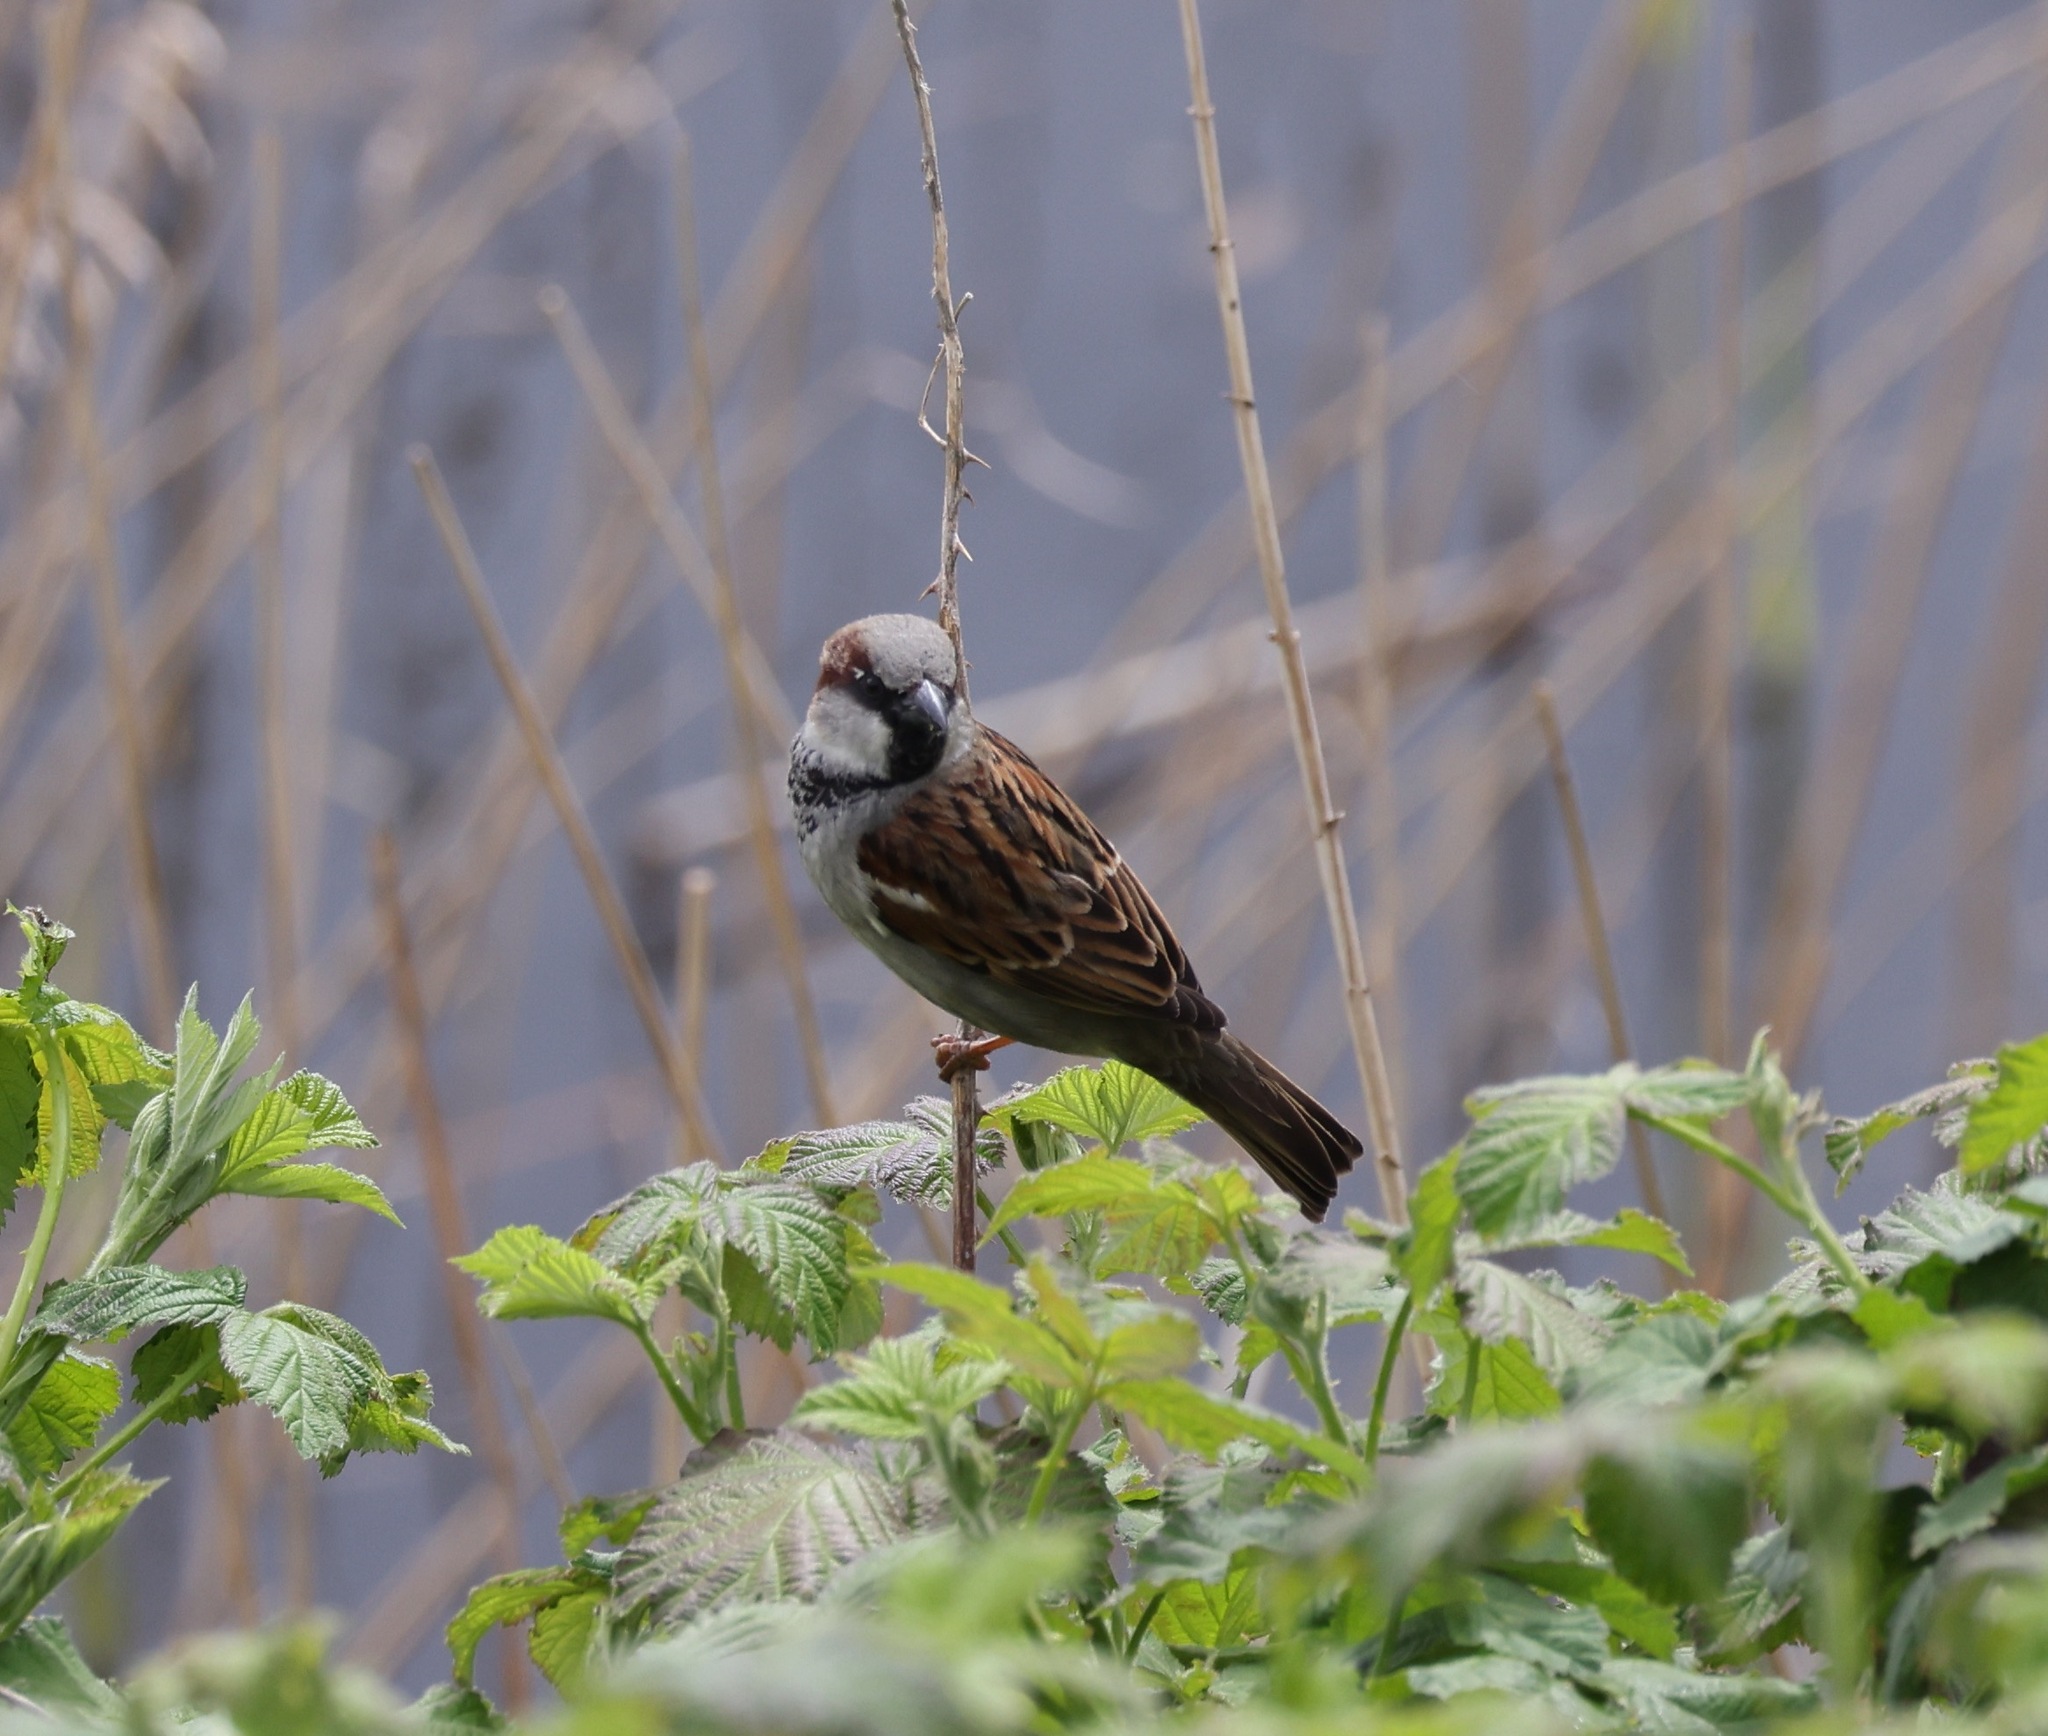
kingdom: Animalia
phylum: Chordata
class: Aves
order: Passeriformes
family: Passeridae
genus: Passer
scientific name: Passer domesticus
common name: House sparrow
